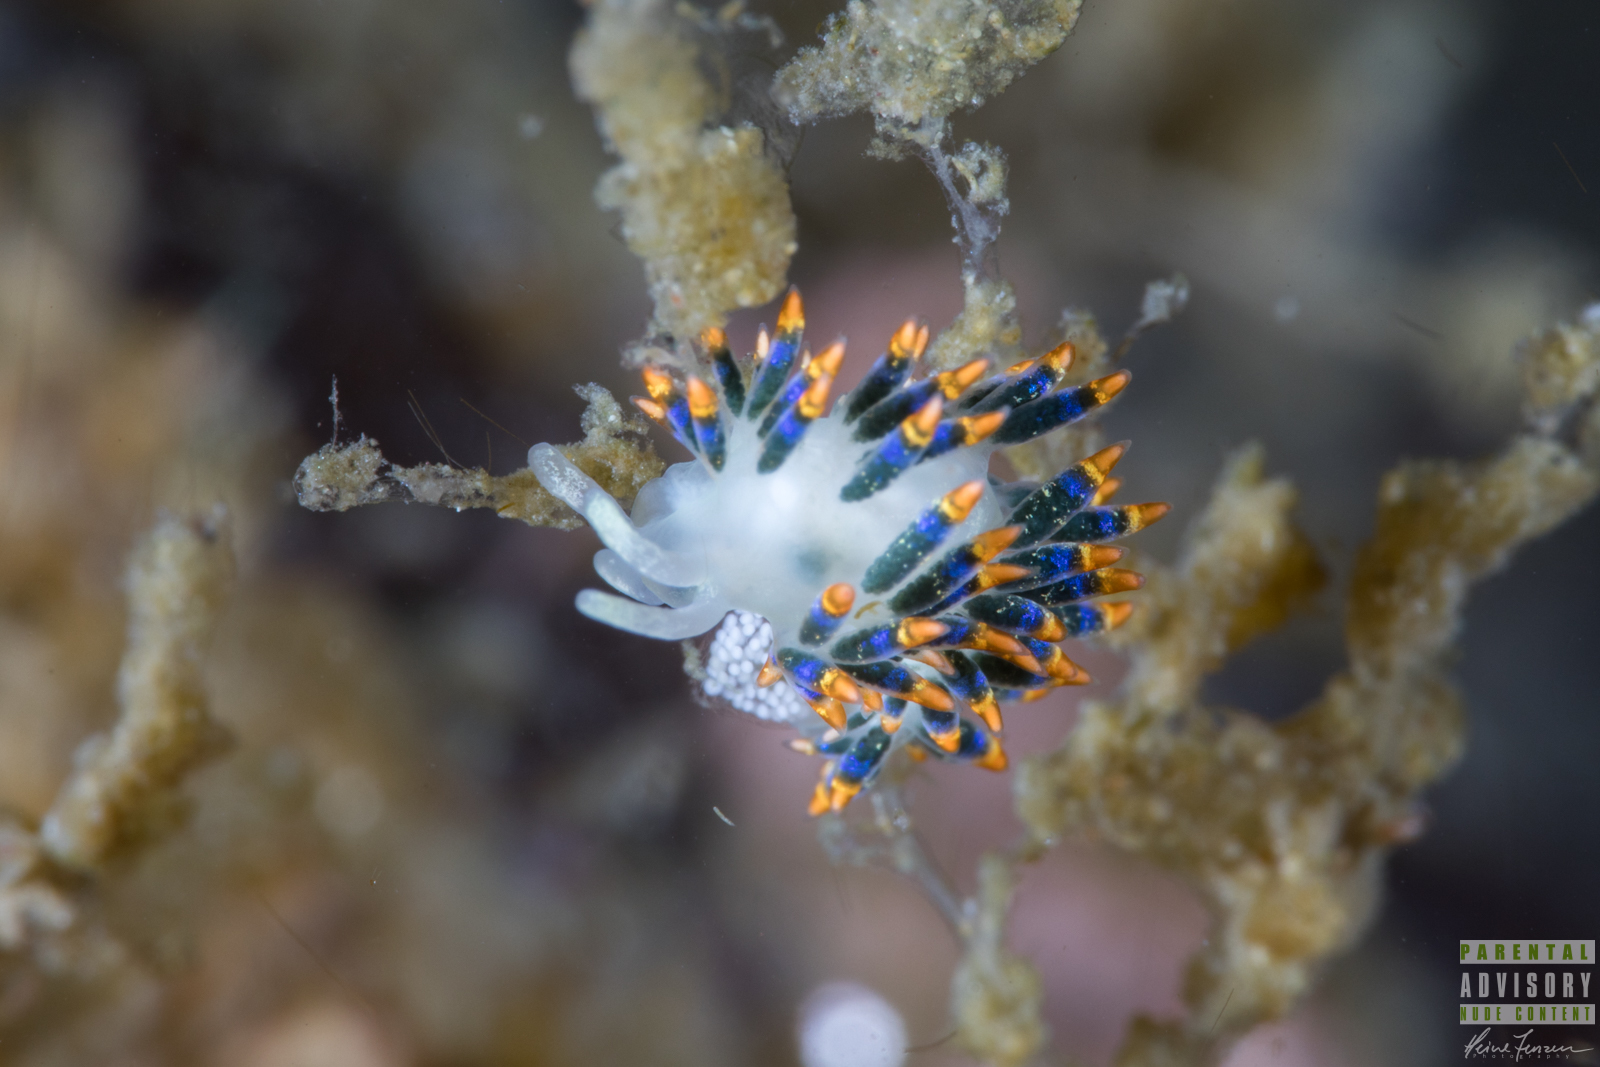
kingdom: Animalia
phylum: Mollusca
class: Gastropoda
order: Nudibranchia
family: Trinchesiidae
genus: Trinchesia
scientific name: Trinchesia cuanensis
